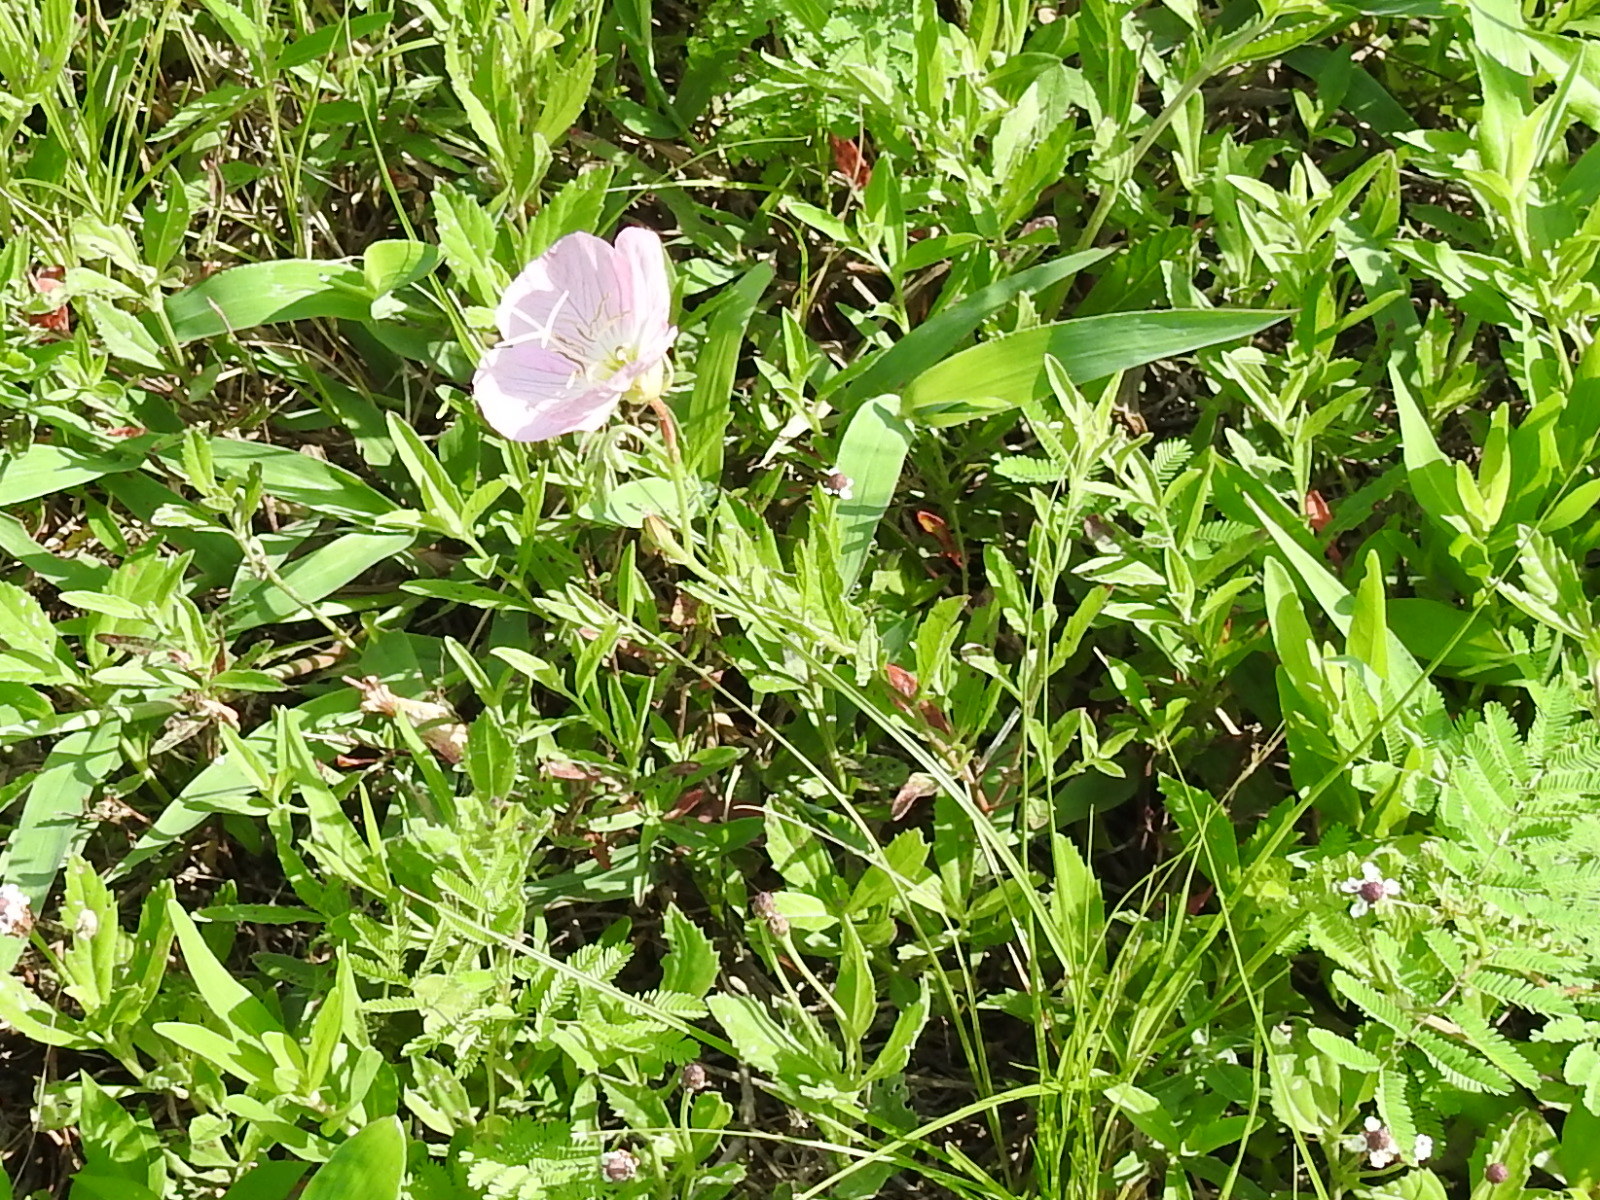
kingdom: Plantae
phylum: Tracheophyta
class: Magnoliopsida
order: Myrtales
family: Onagraceae
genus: Oenothera
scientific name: Oenothera speciosa
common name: White evening-primrose
